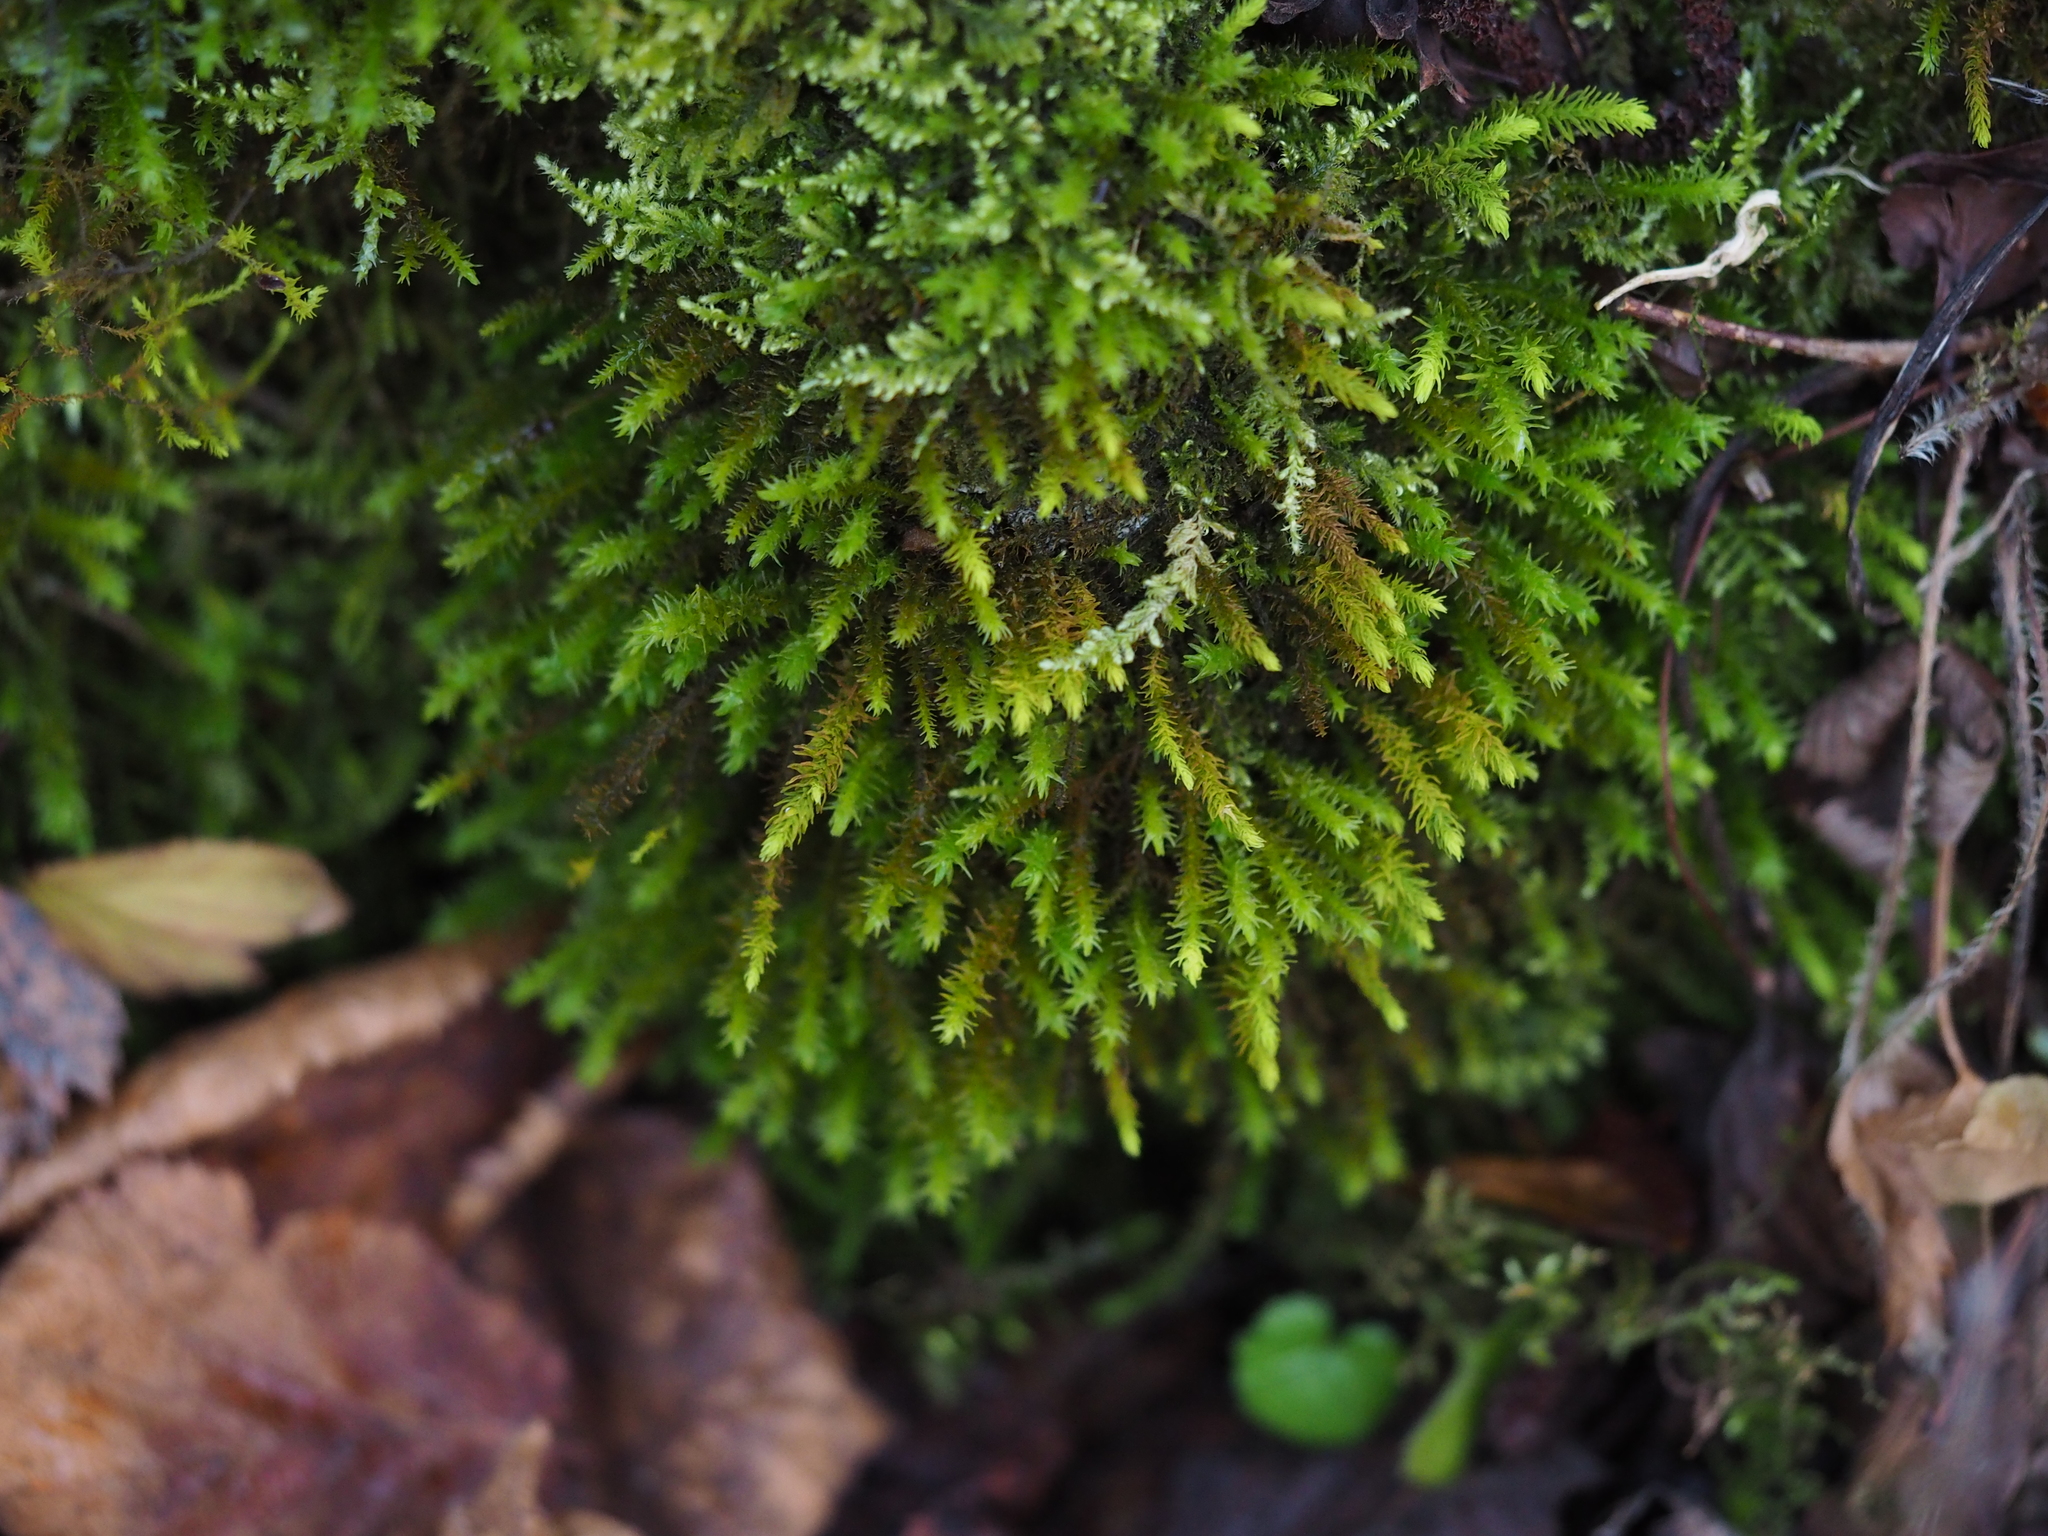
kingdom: Plantae
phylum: Bryophyta
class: Bryopsida
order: Hypnales
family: Anomodontaceae
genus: Anomodon
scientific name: Anomodon viticulosus
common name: Tall anomodon
